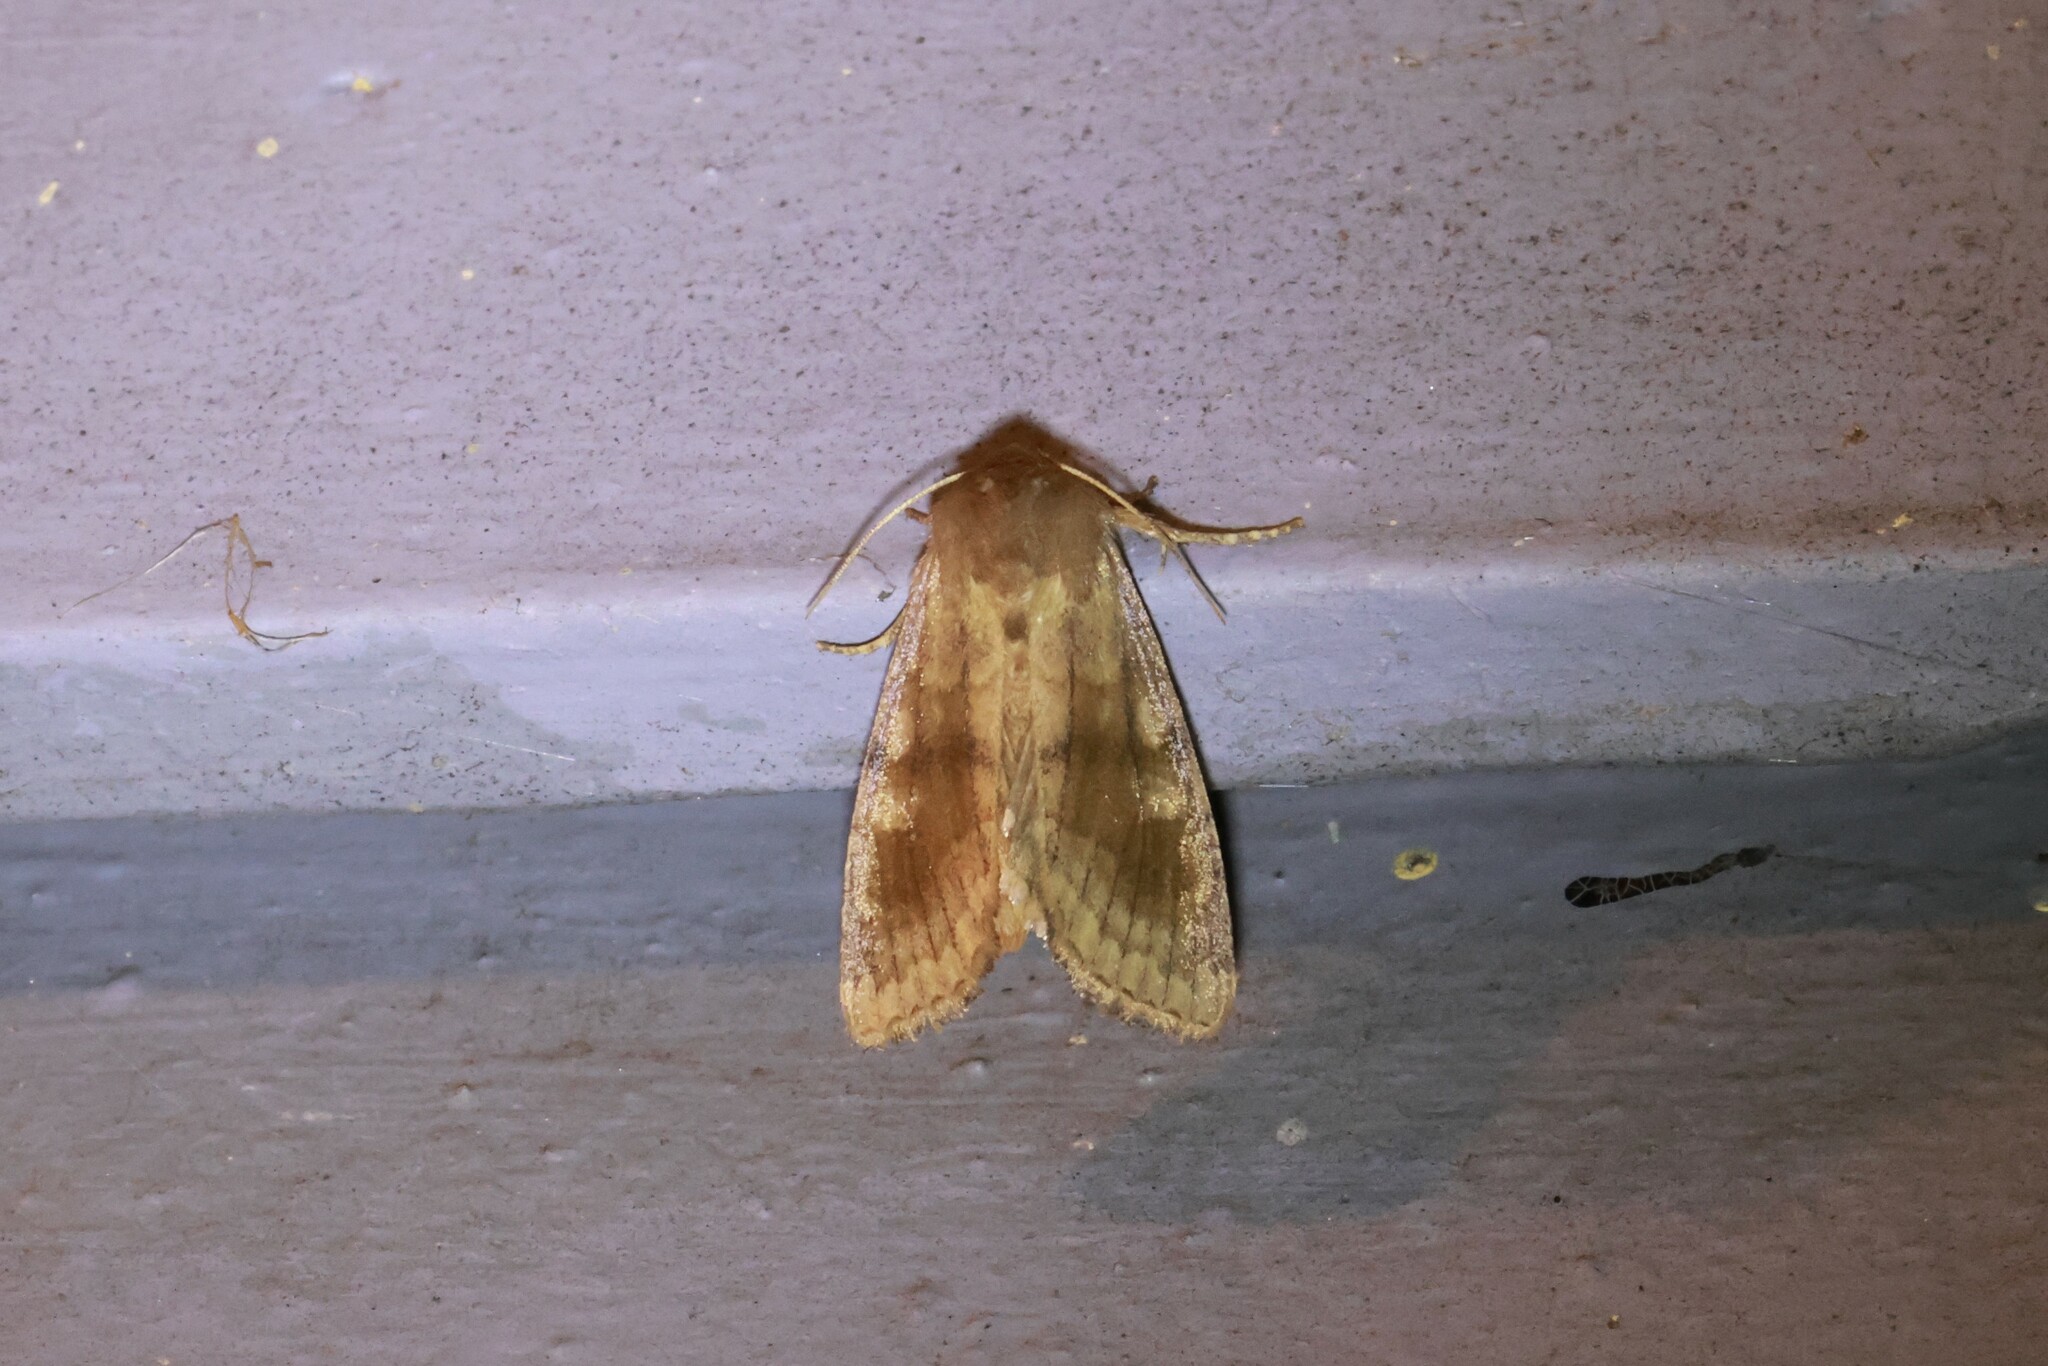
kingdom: Animalia
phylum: Arthropoda
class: Insecta
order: Lepidoptera
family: Noctuidae
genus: Nephelodes
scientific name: Nephelodes minians
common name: Bronzed cutworm
